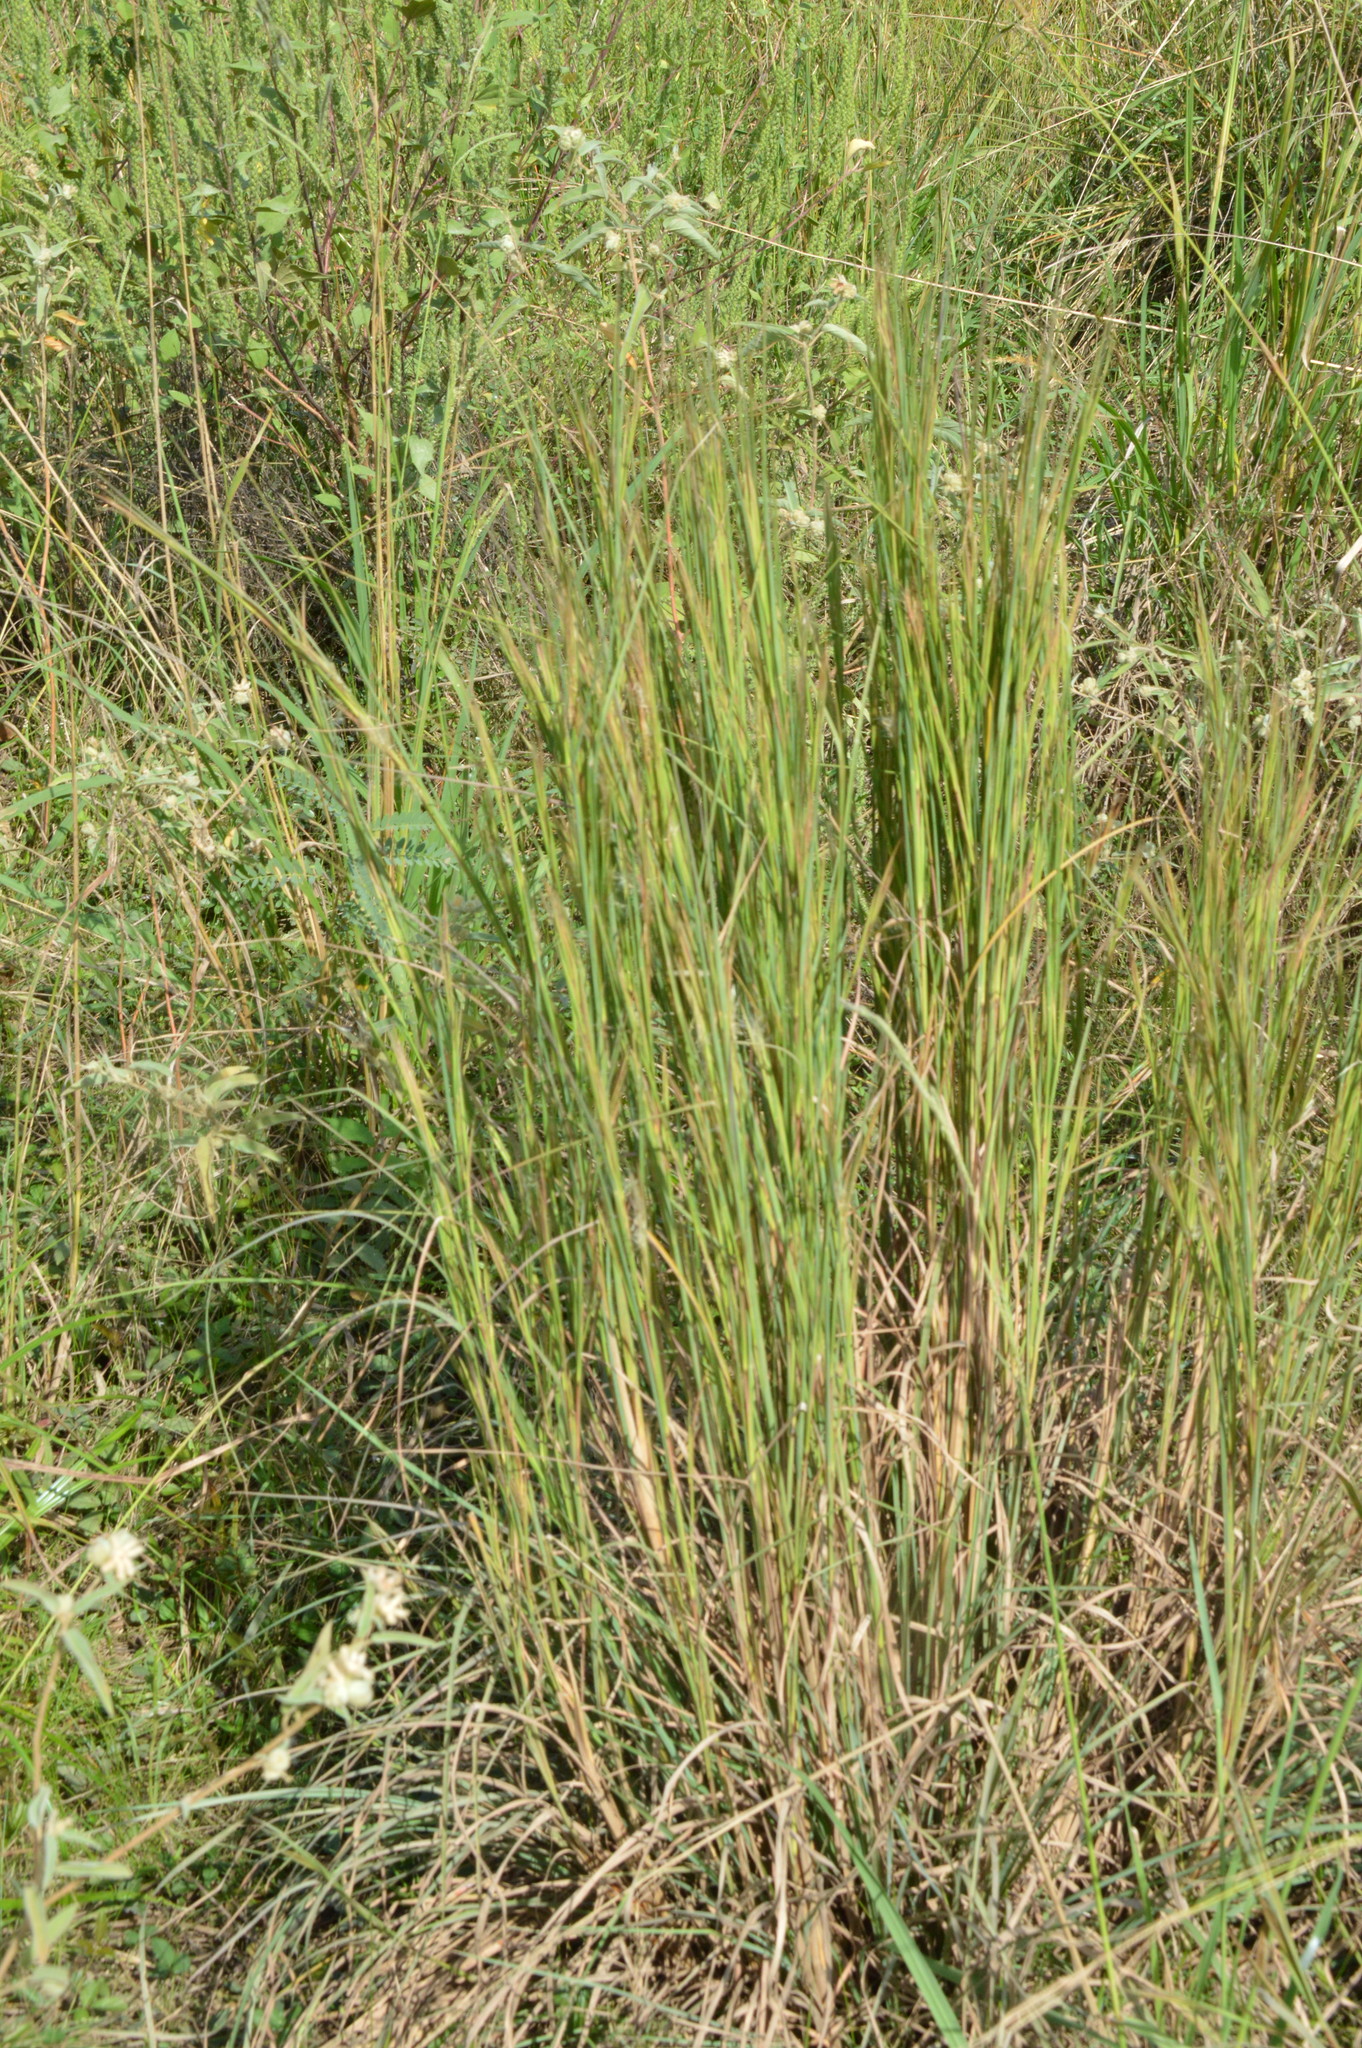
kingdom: Plantae
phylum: Tracheophyta
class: Liliopsida
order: Poales
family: Poaceae
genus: Andropogon
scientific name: Andropogon virginicus
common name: Broomsedge bluestem
